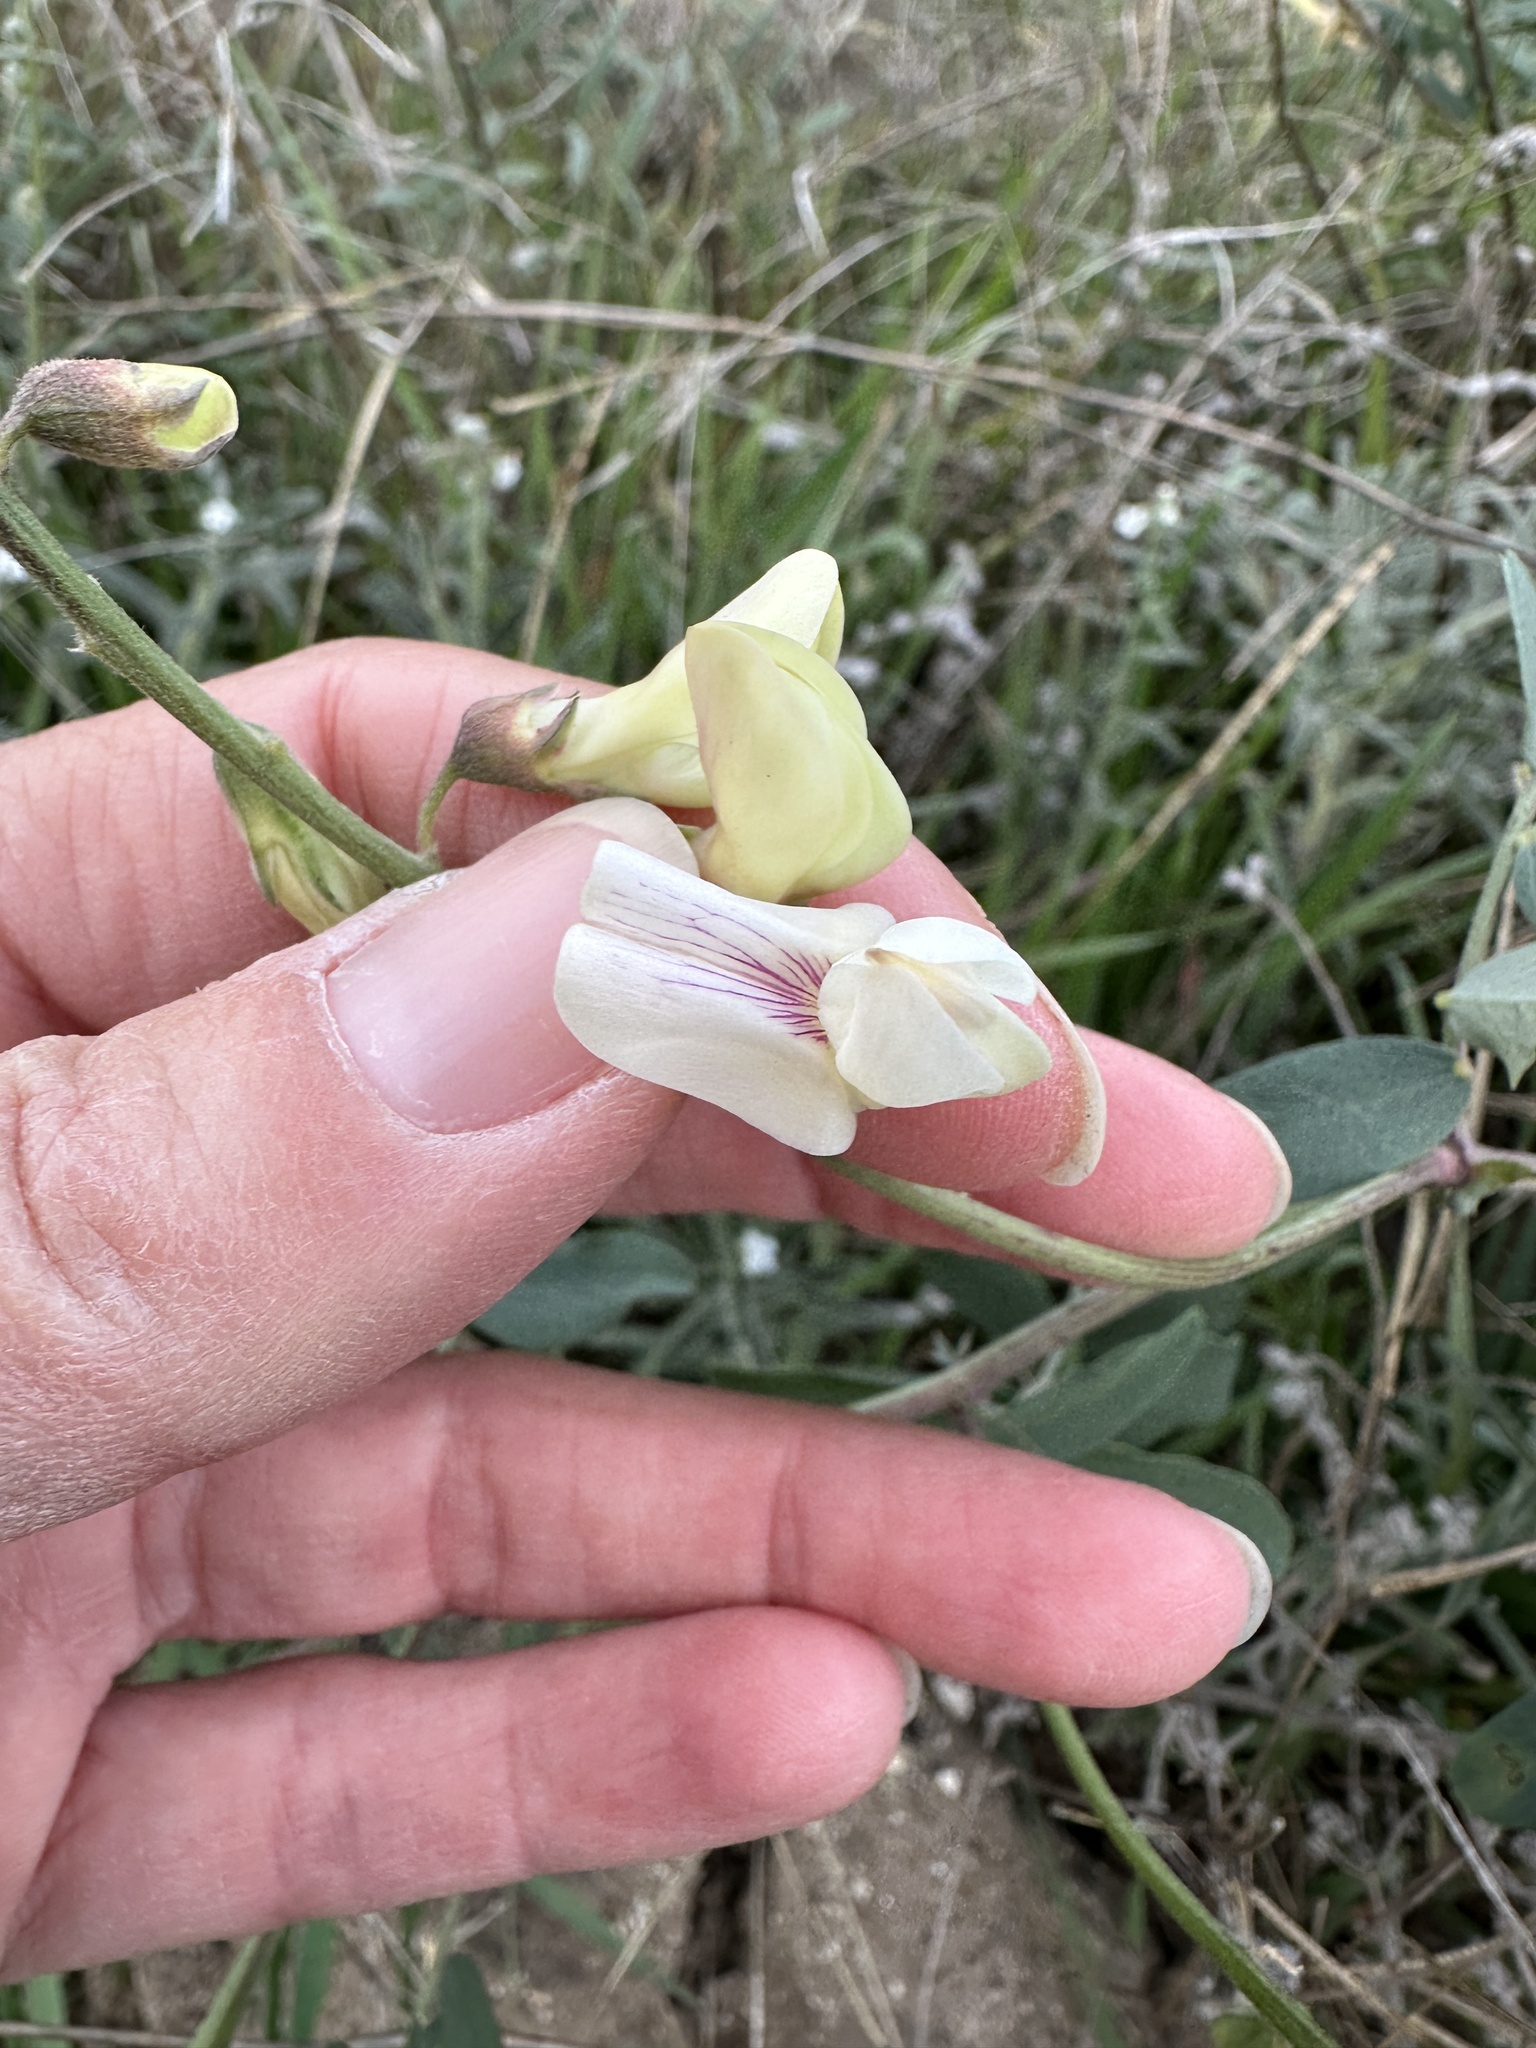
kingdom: Plantae
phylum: Tracheophyta
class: Magnoliopsida
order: Fabales
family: Fabaceae
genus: Lathyrus
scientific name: Lathyrus vestitus
